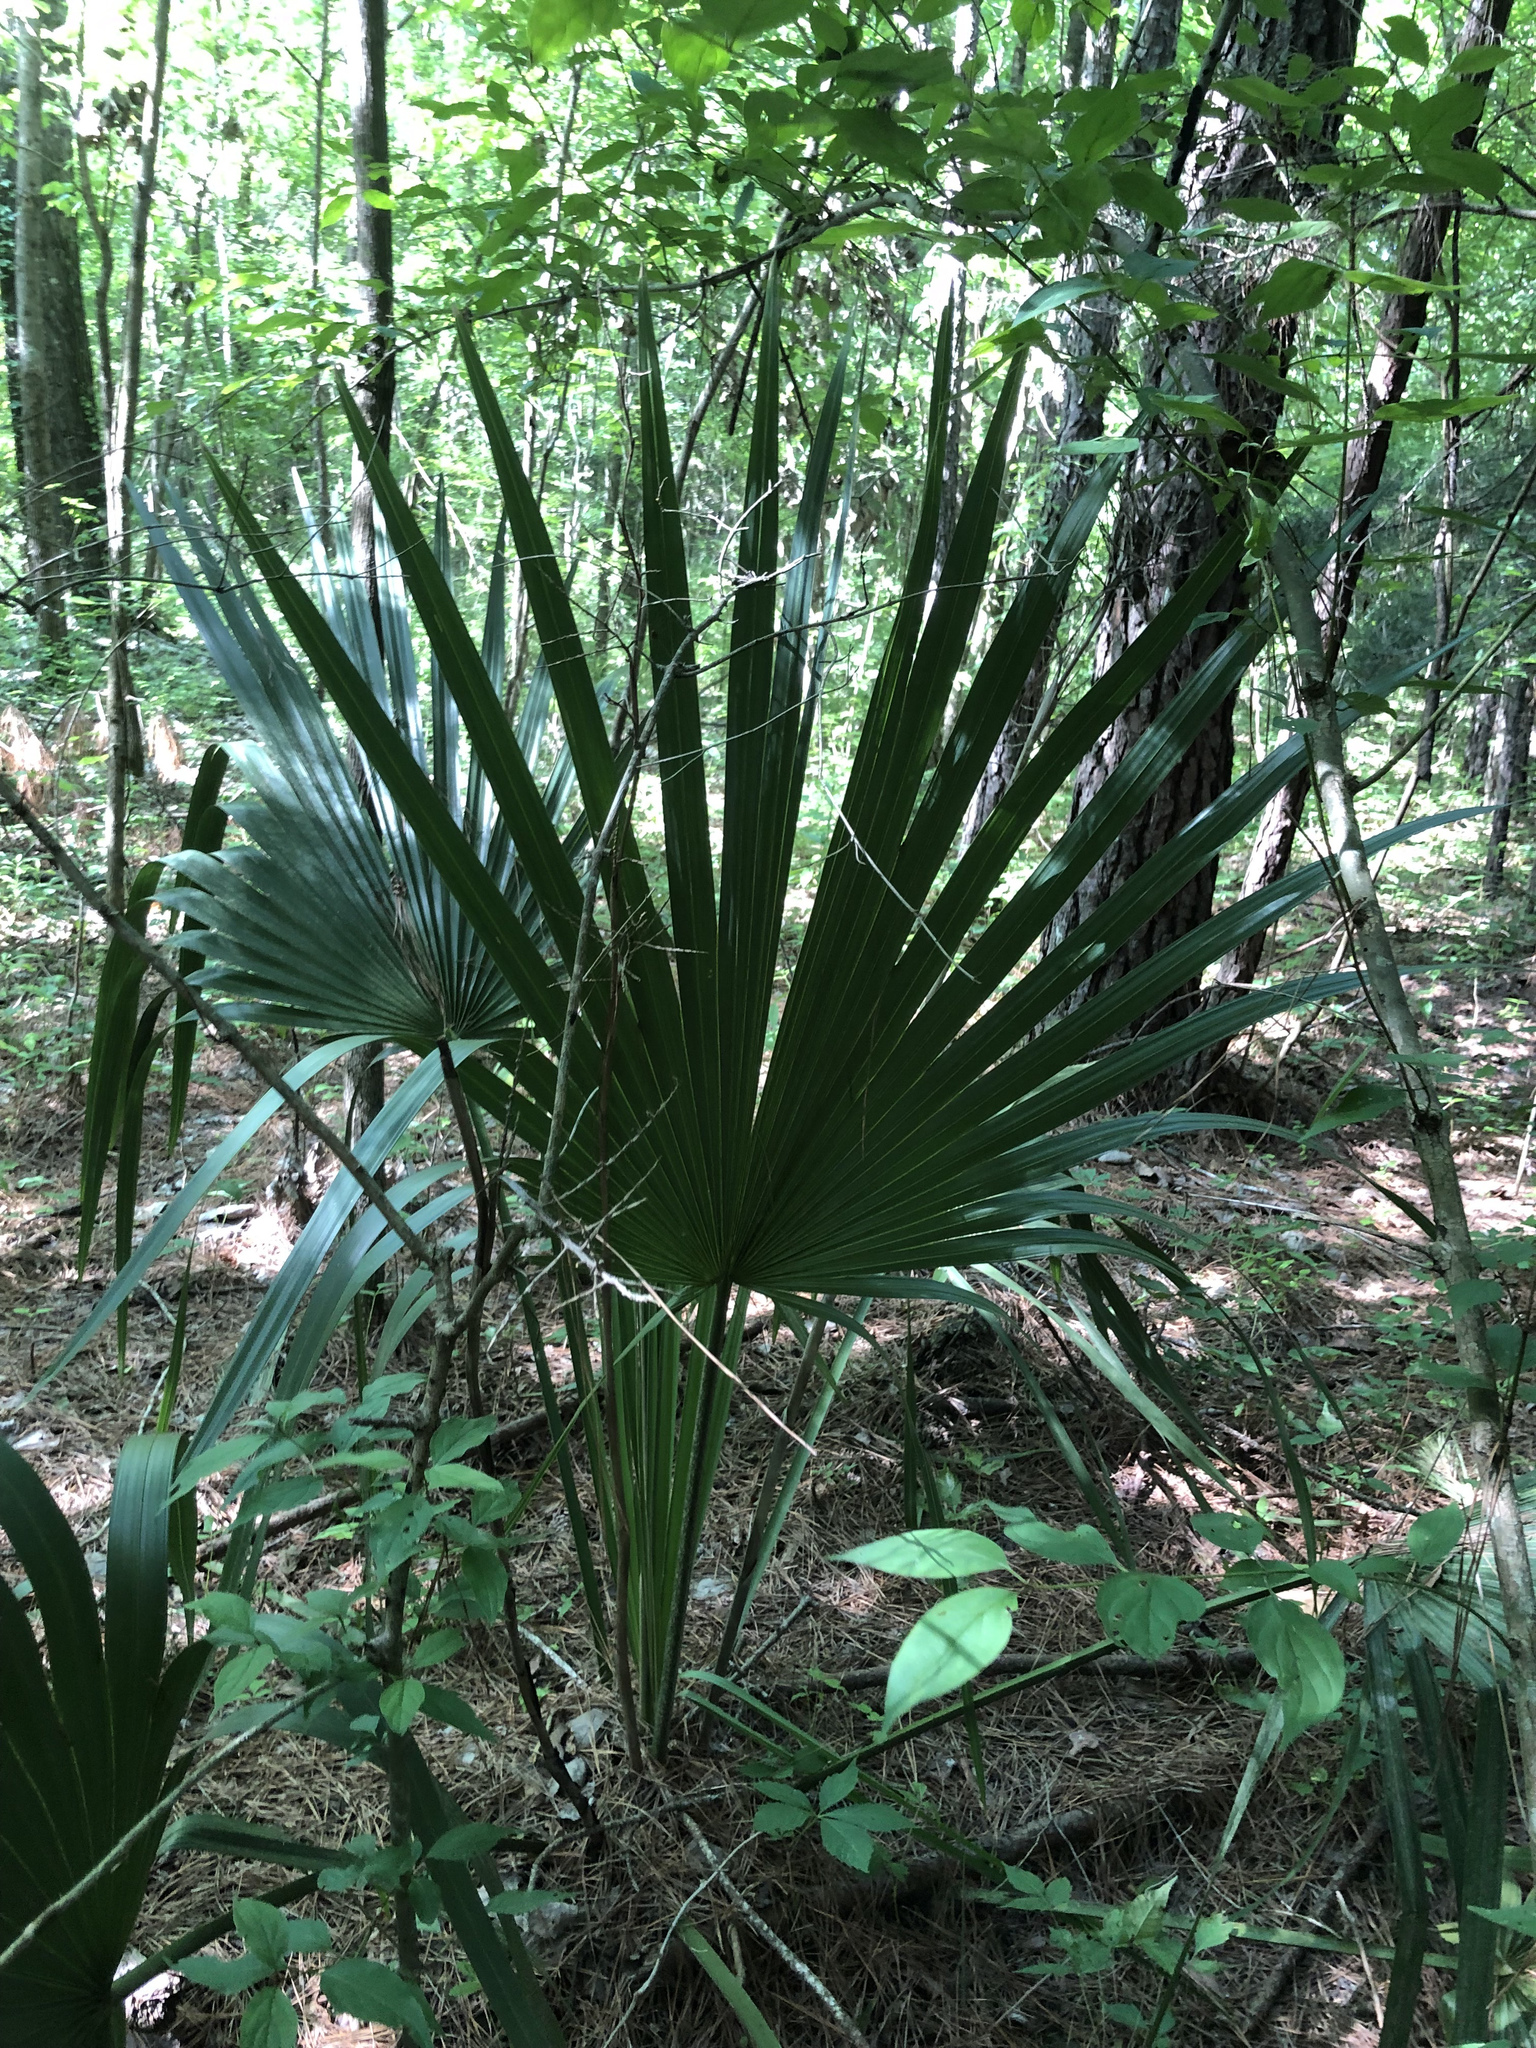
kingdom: Plantae
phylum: Tracheophyta
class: Liliopsida
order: Arecales
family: Arecaceae
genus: Sabal
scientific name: Sabal minor
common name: Dwarf palmetto
